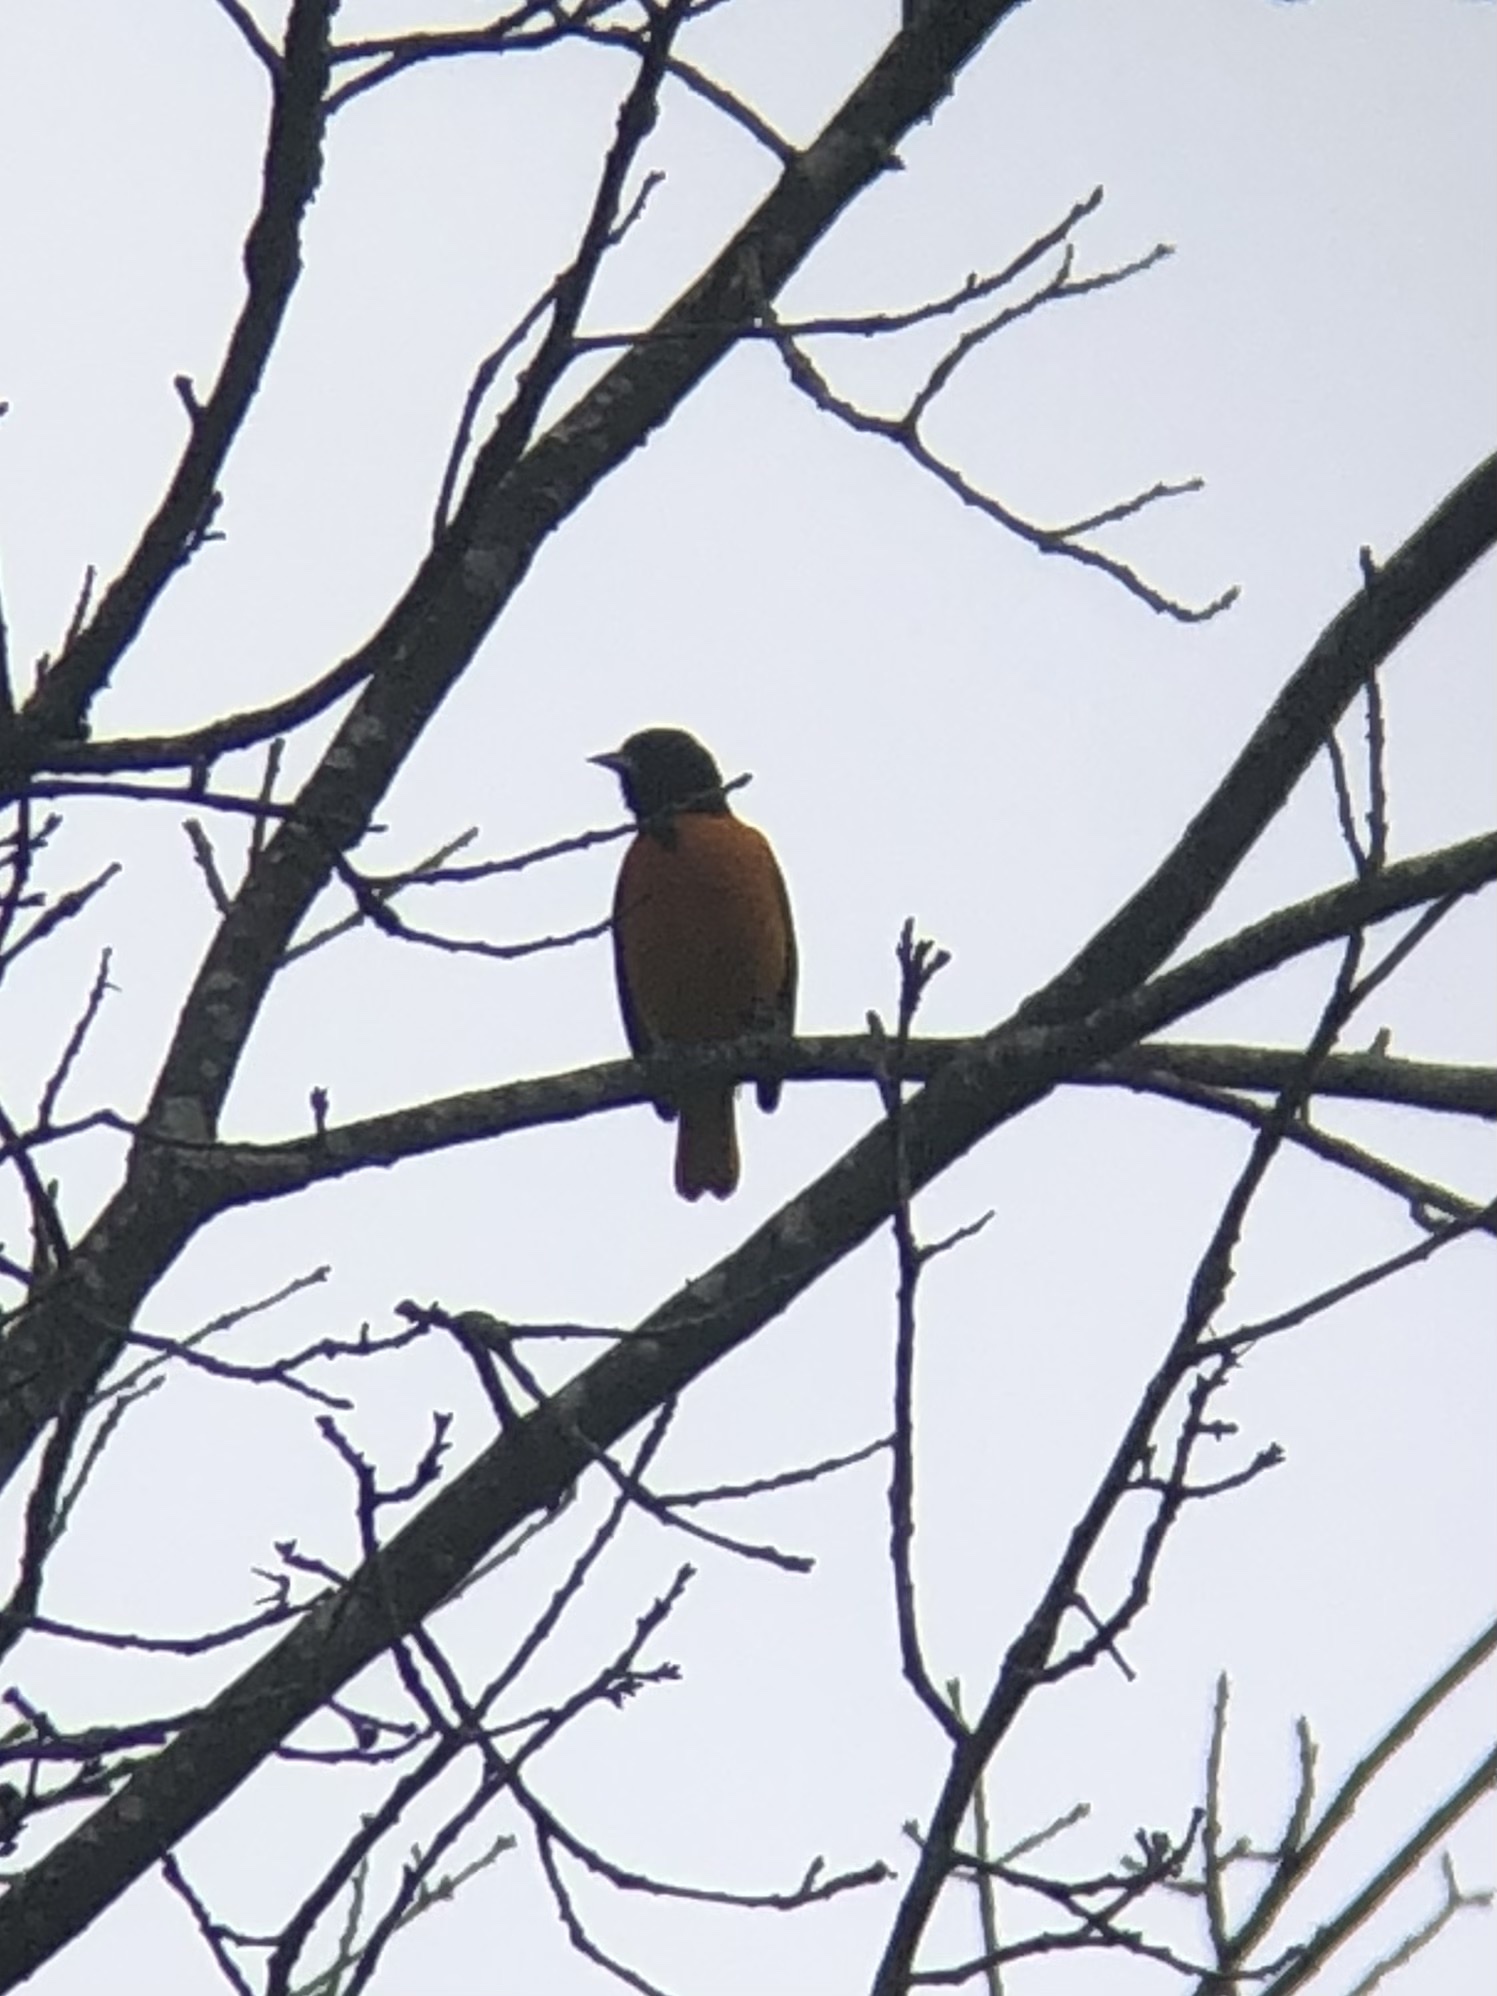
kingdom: Animalia
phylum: Chordata
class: Aves
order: Passeriformes
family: Icteridae
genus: Icterus
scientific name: Icterus galbula
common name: Baltimore oriole
